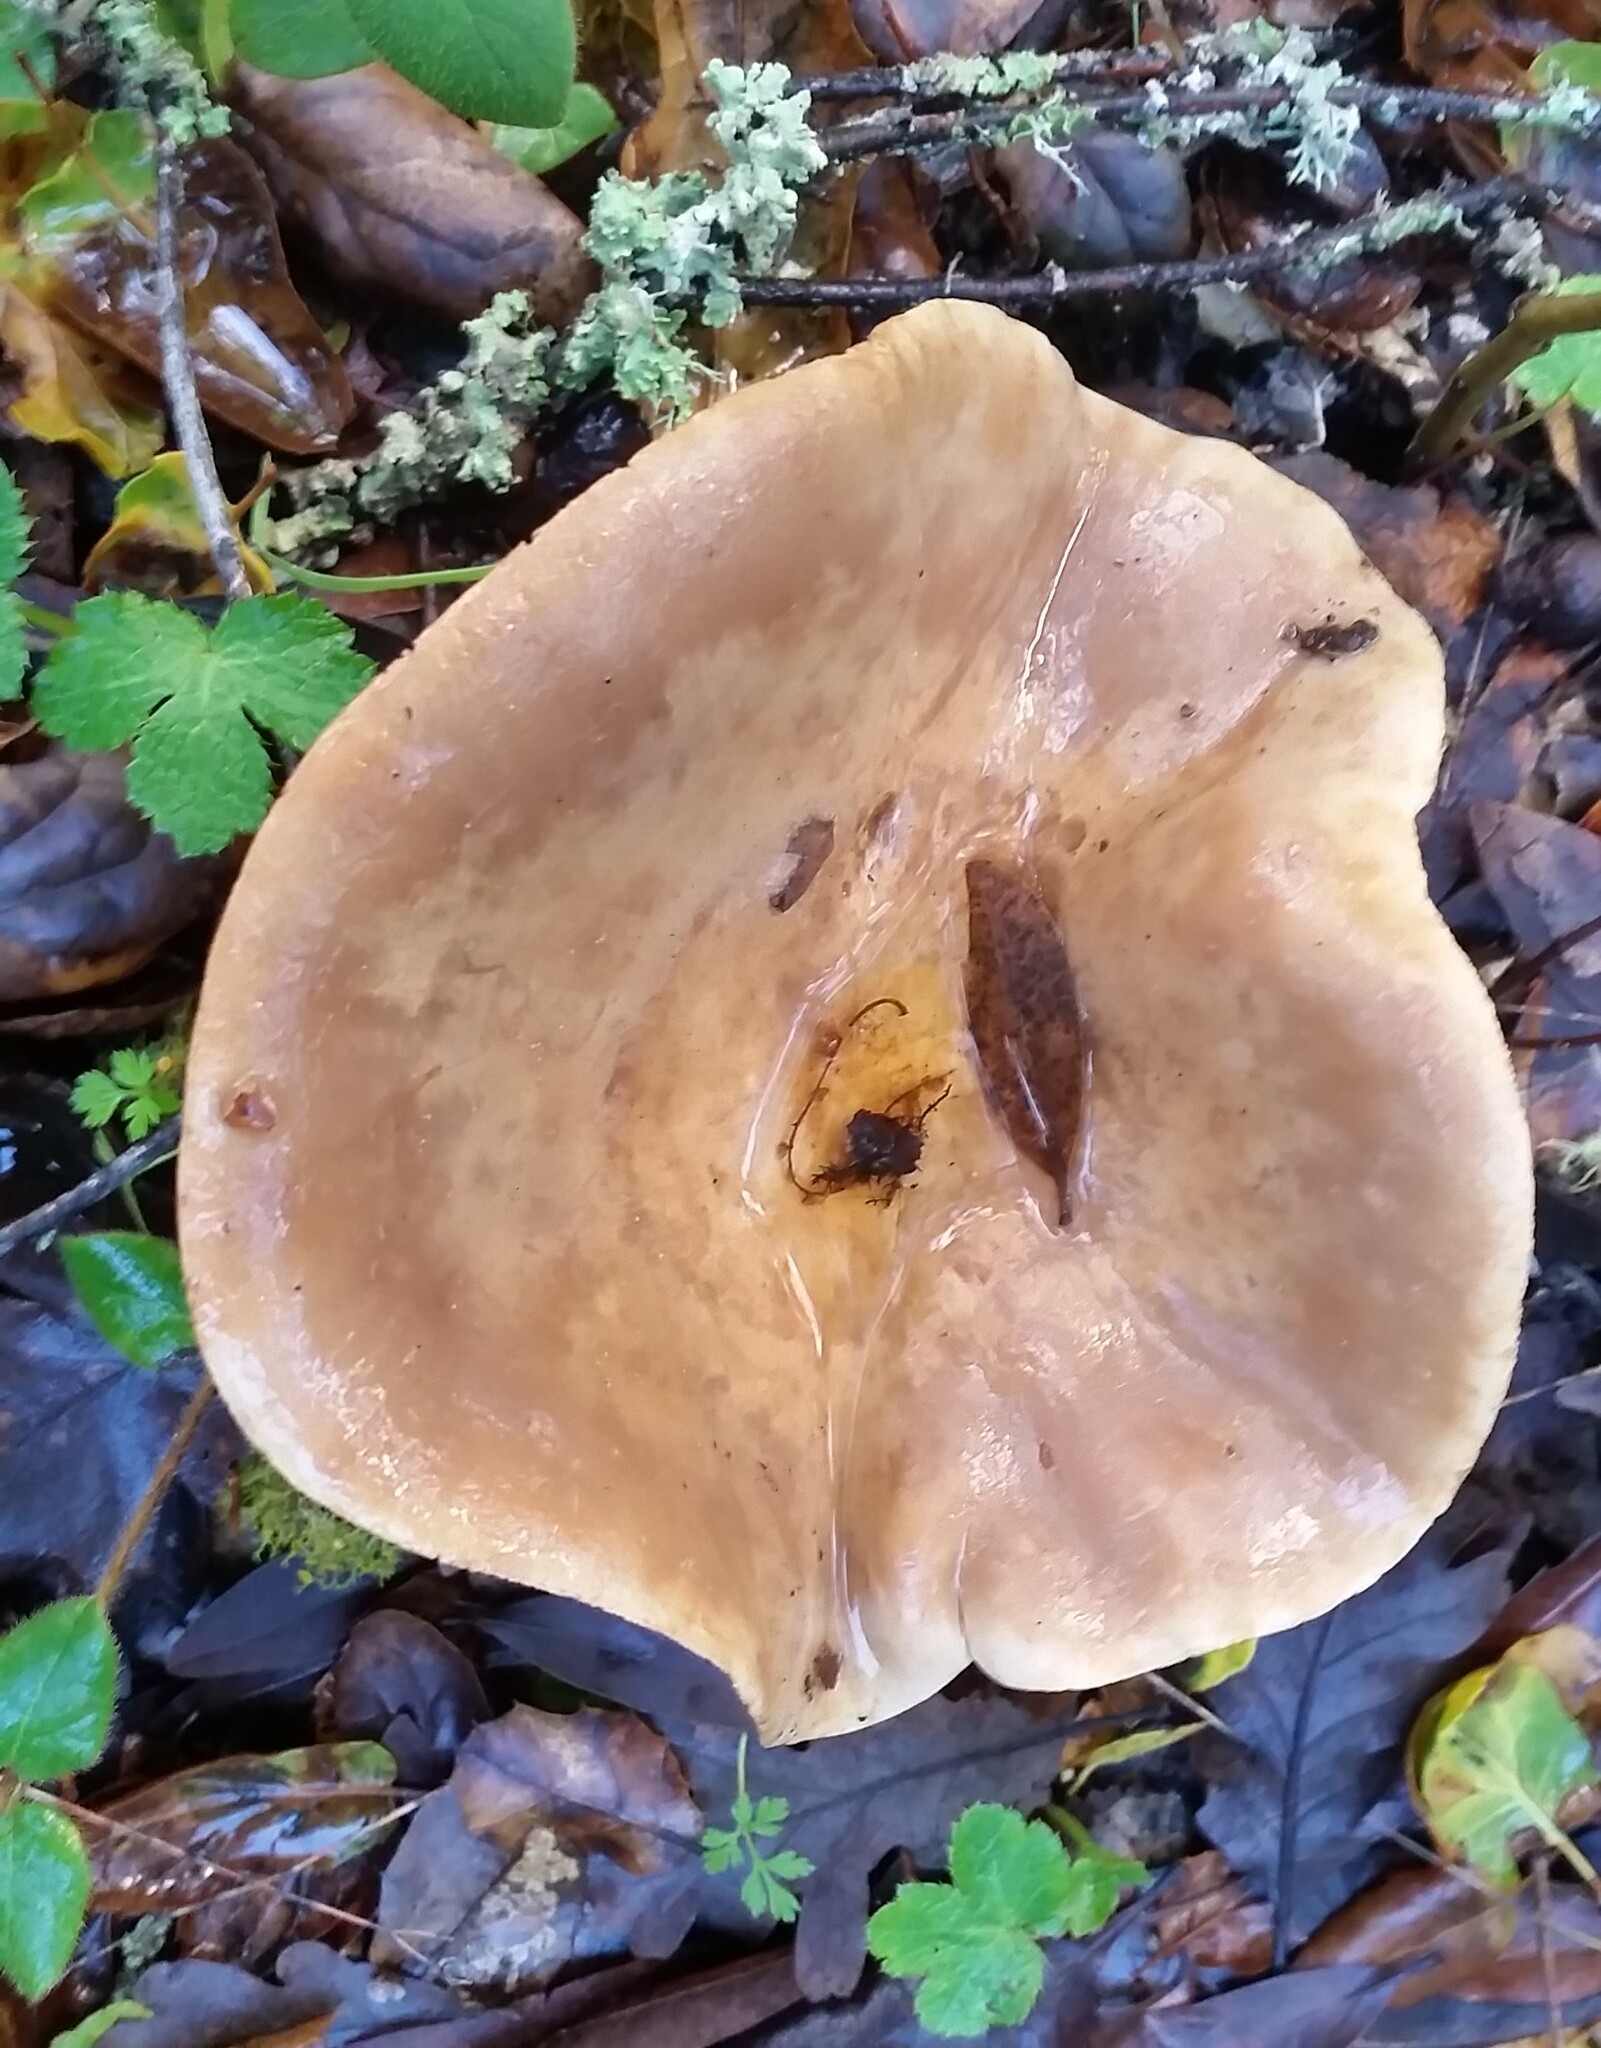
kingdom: Fungi
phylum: Basidiomycota
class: Agaricomycetes
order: Russulales
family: Russulaceae
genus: Lactarius
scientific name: Lactarius argillaceifolius
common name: Clay-gilled milkcap
